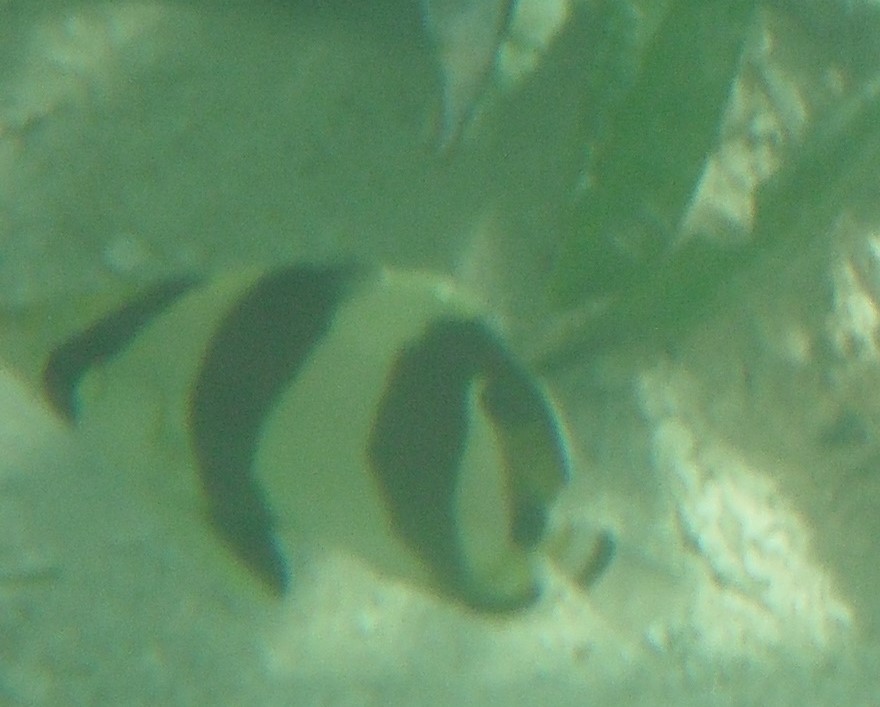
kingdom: Animalia
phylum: Chordata
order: Perciformes
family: Chaetodontidae
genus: Chaetodon
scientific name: Chaetodon striatus
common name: Banded butterflyfish
